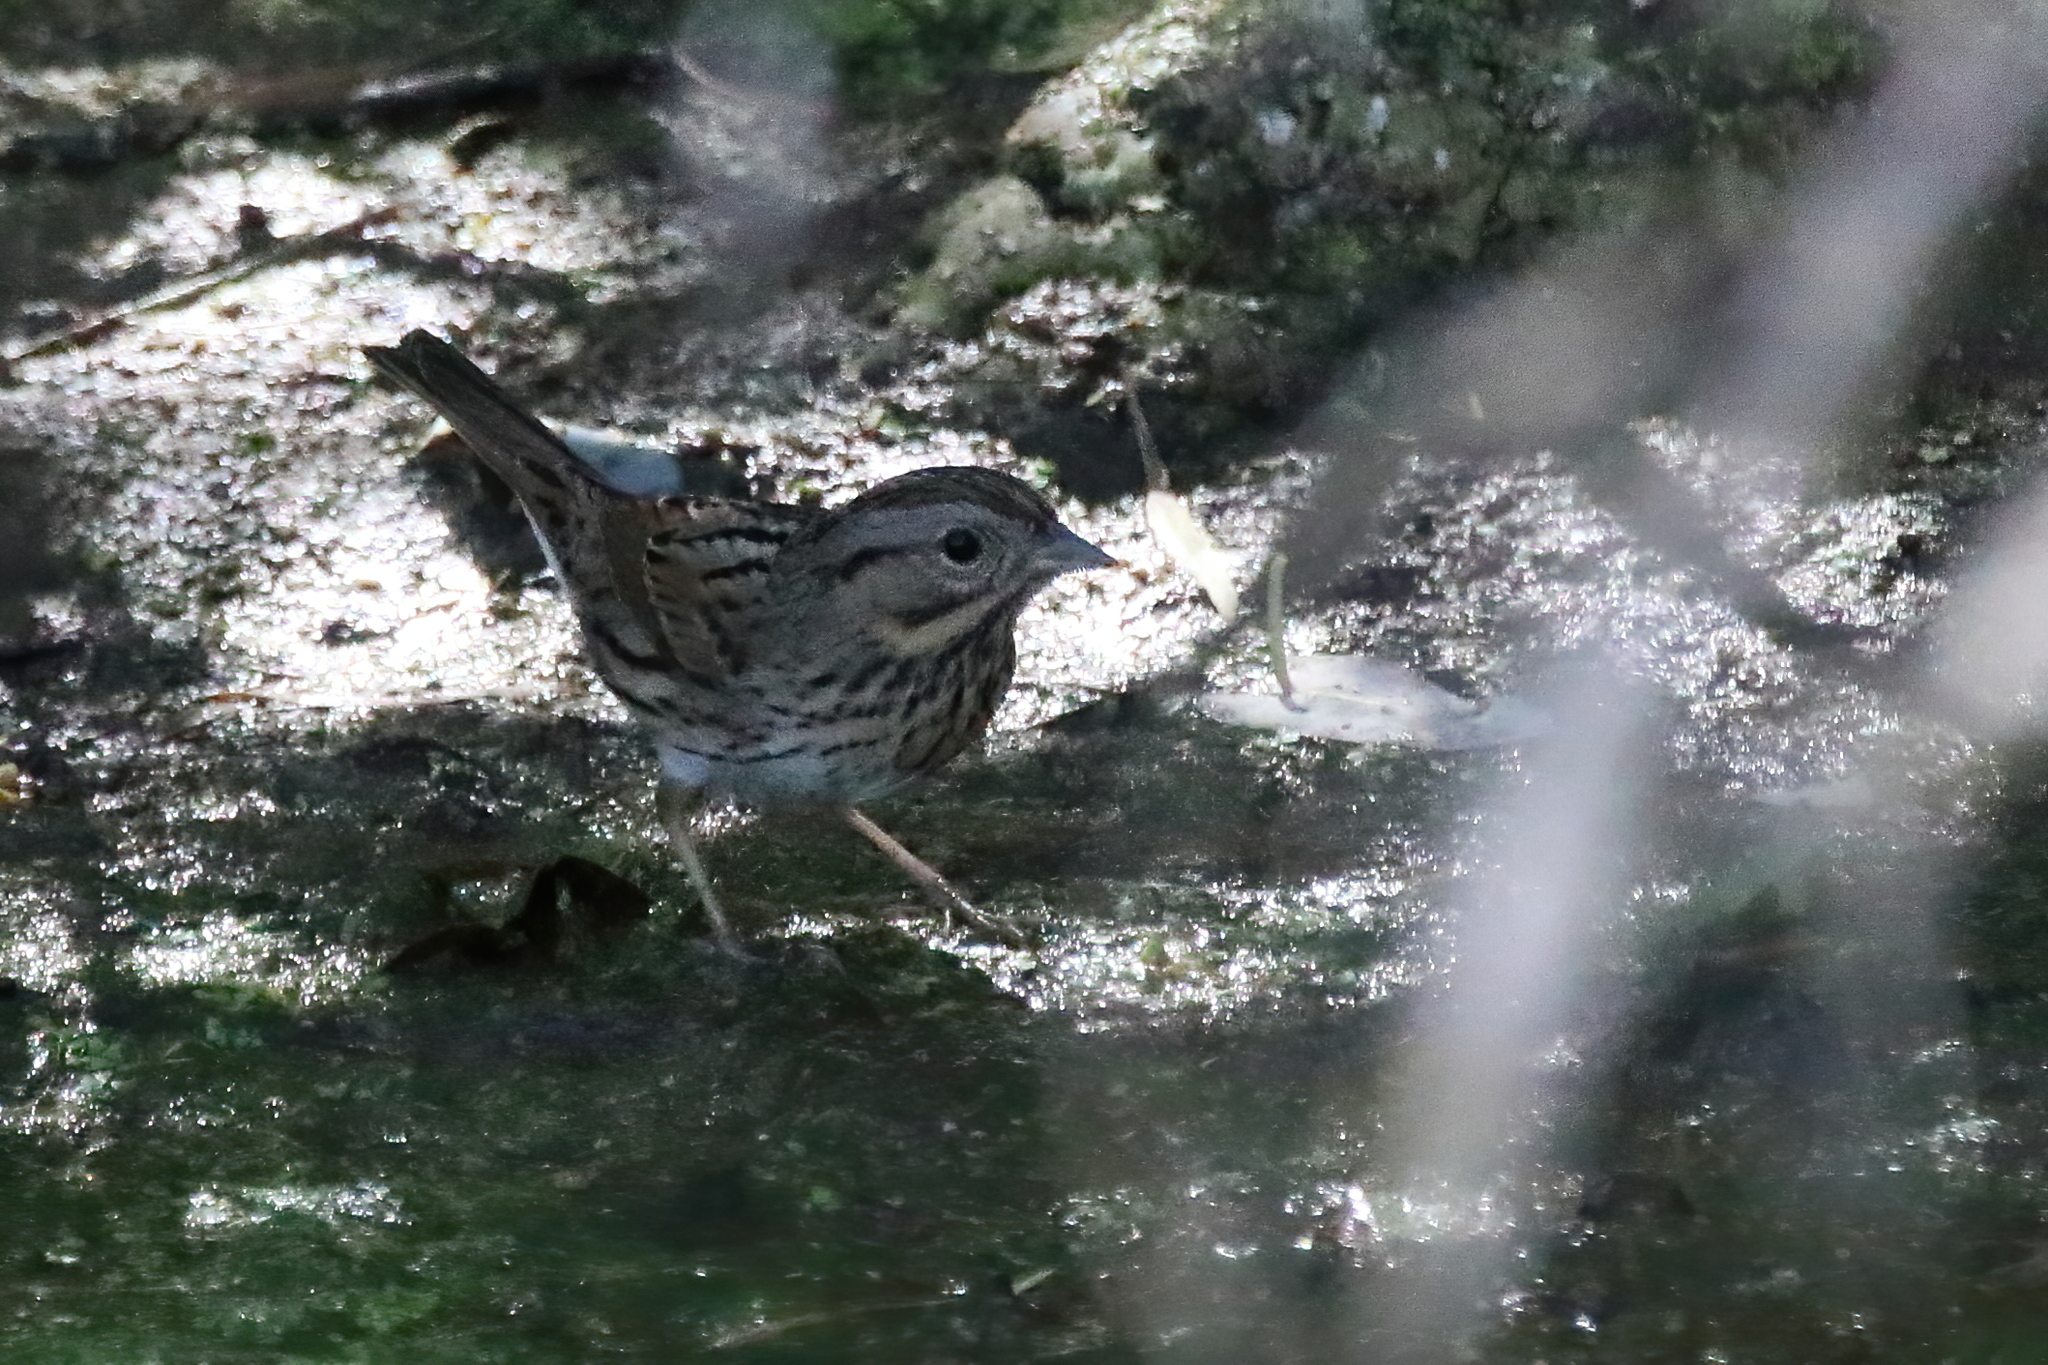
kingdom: Animalia
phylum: Chordata
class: Aves
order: Passeriformes
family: Passerellidae
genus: Melospiza
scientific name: Melospiza lincolnii
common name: Lincoln's sparrow
